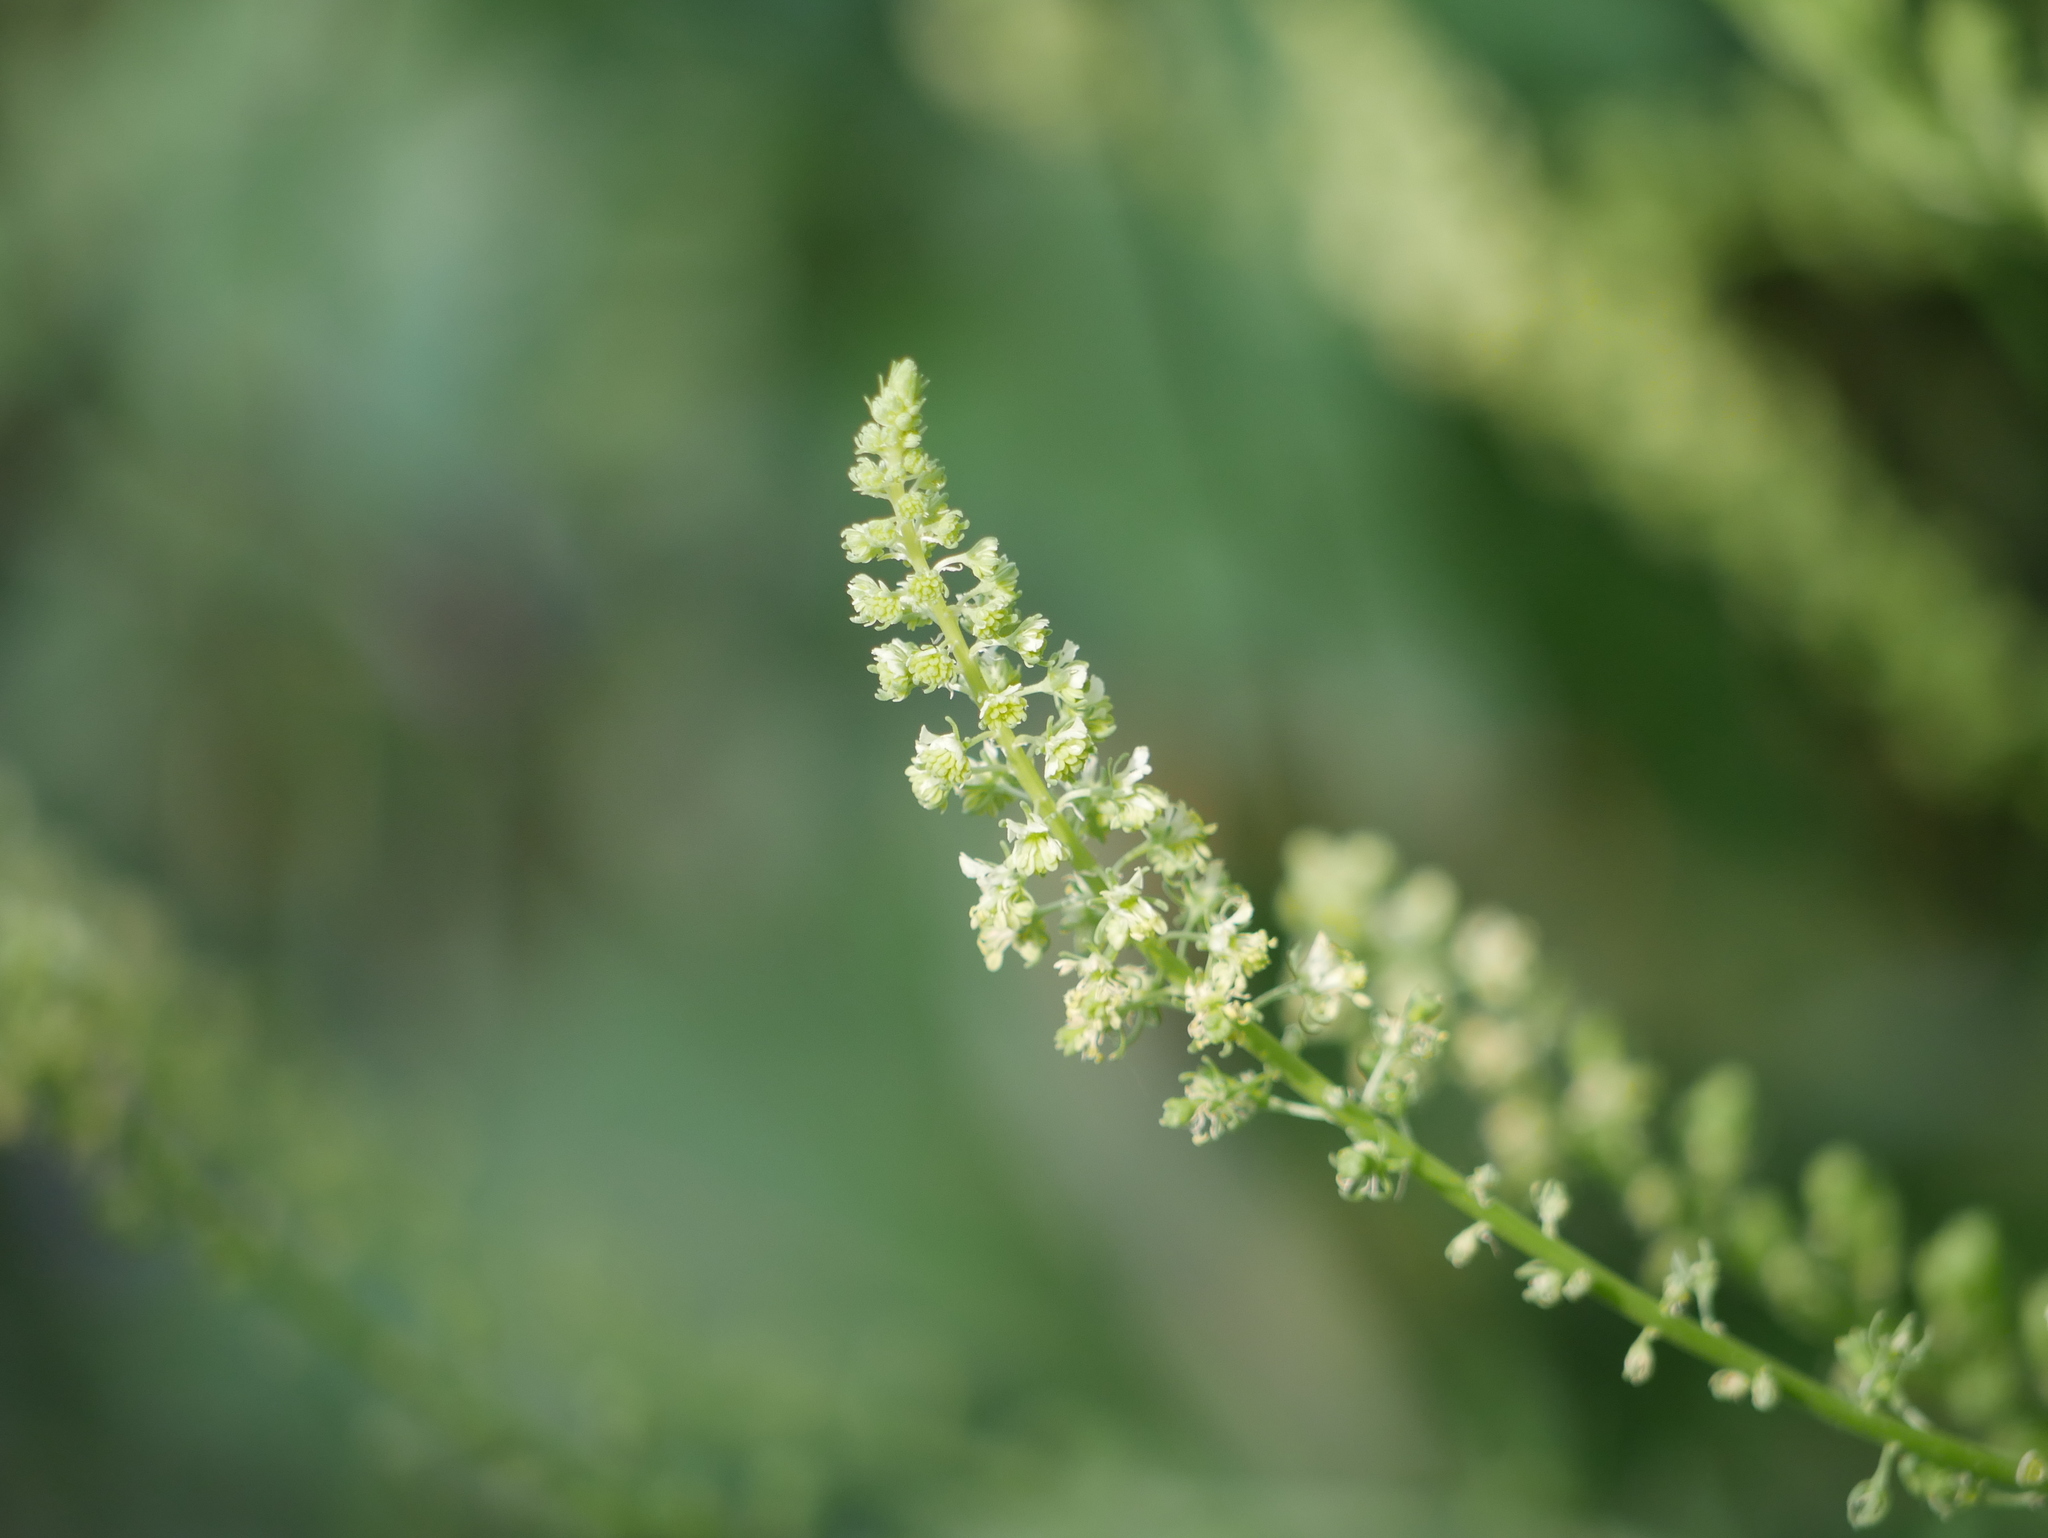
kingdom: Plantae
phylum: Tracheophyta
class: Magnoliopsida
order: Brassicales
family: Resedaceae
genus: Reseda
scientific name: Reseda lutea
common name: Wild mignonette
